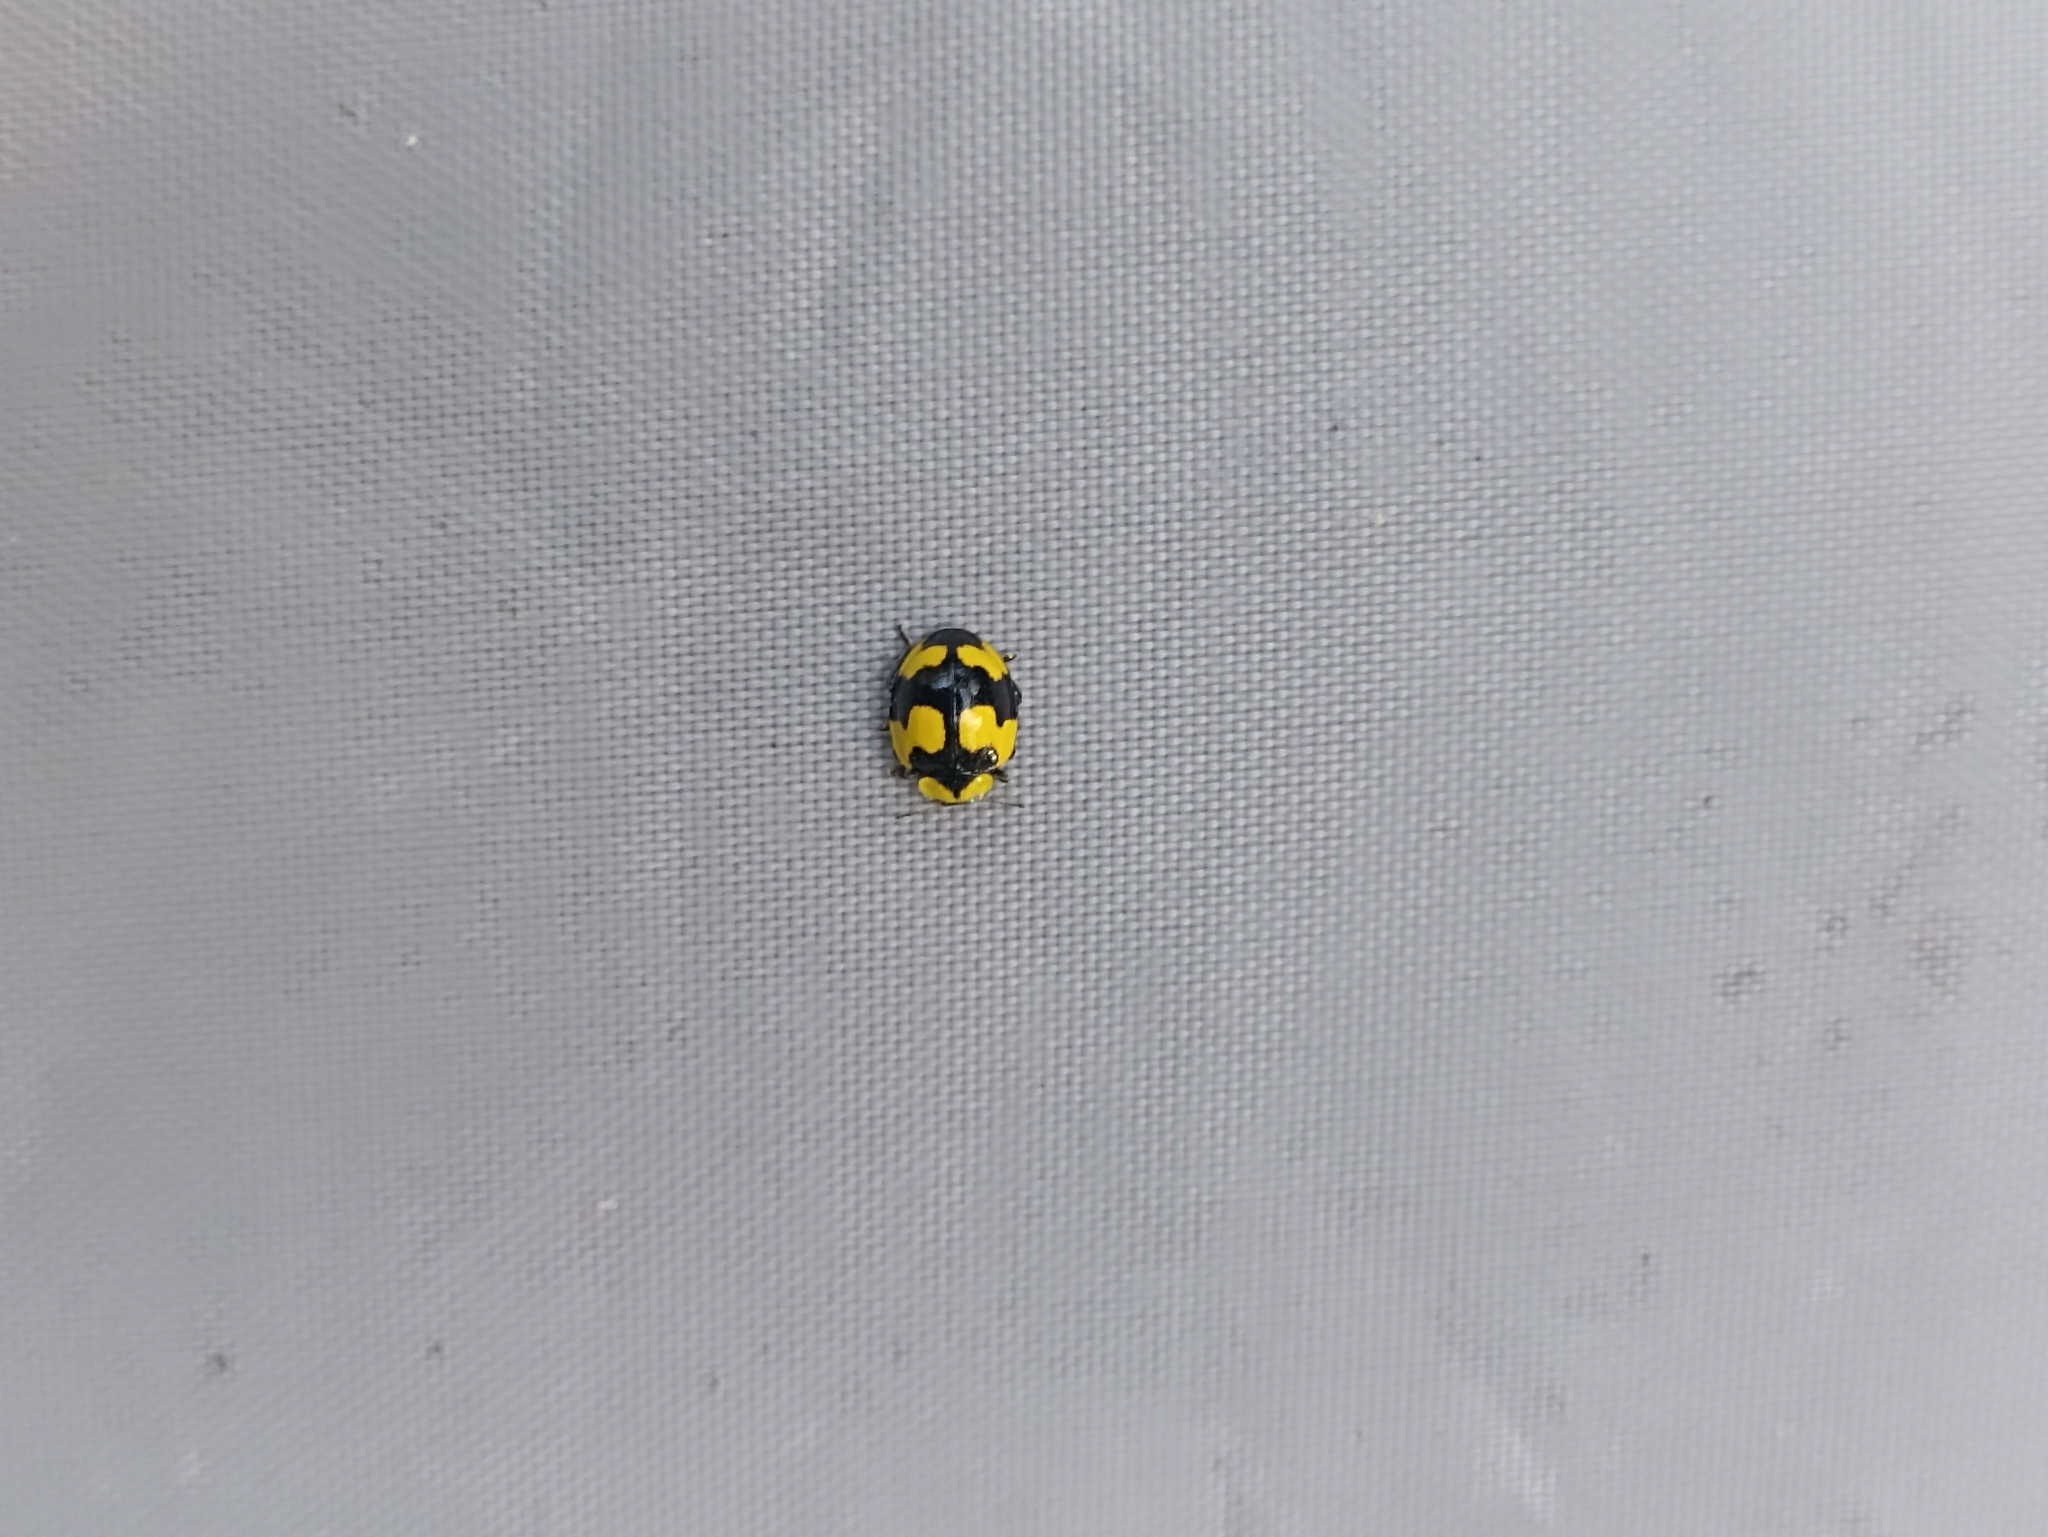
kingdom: Animalia
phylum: Arthropoda
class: Insecta
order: Coleoptera
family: Coccinellidae
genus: Illeis
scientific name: Illeis galbula
